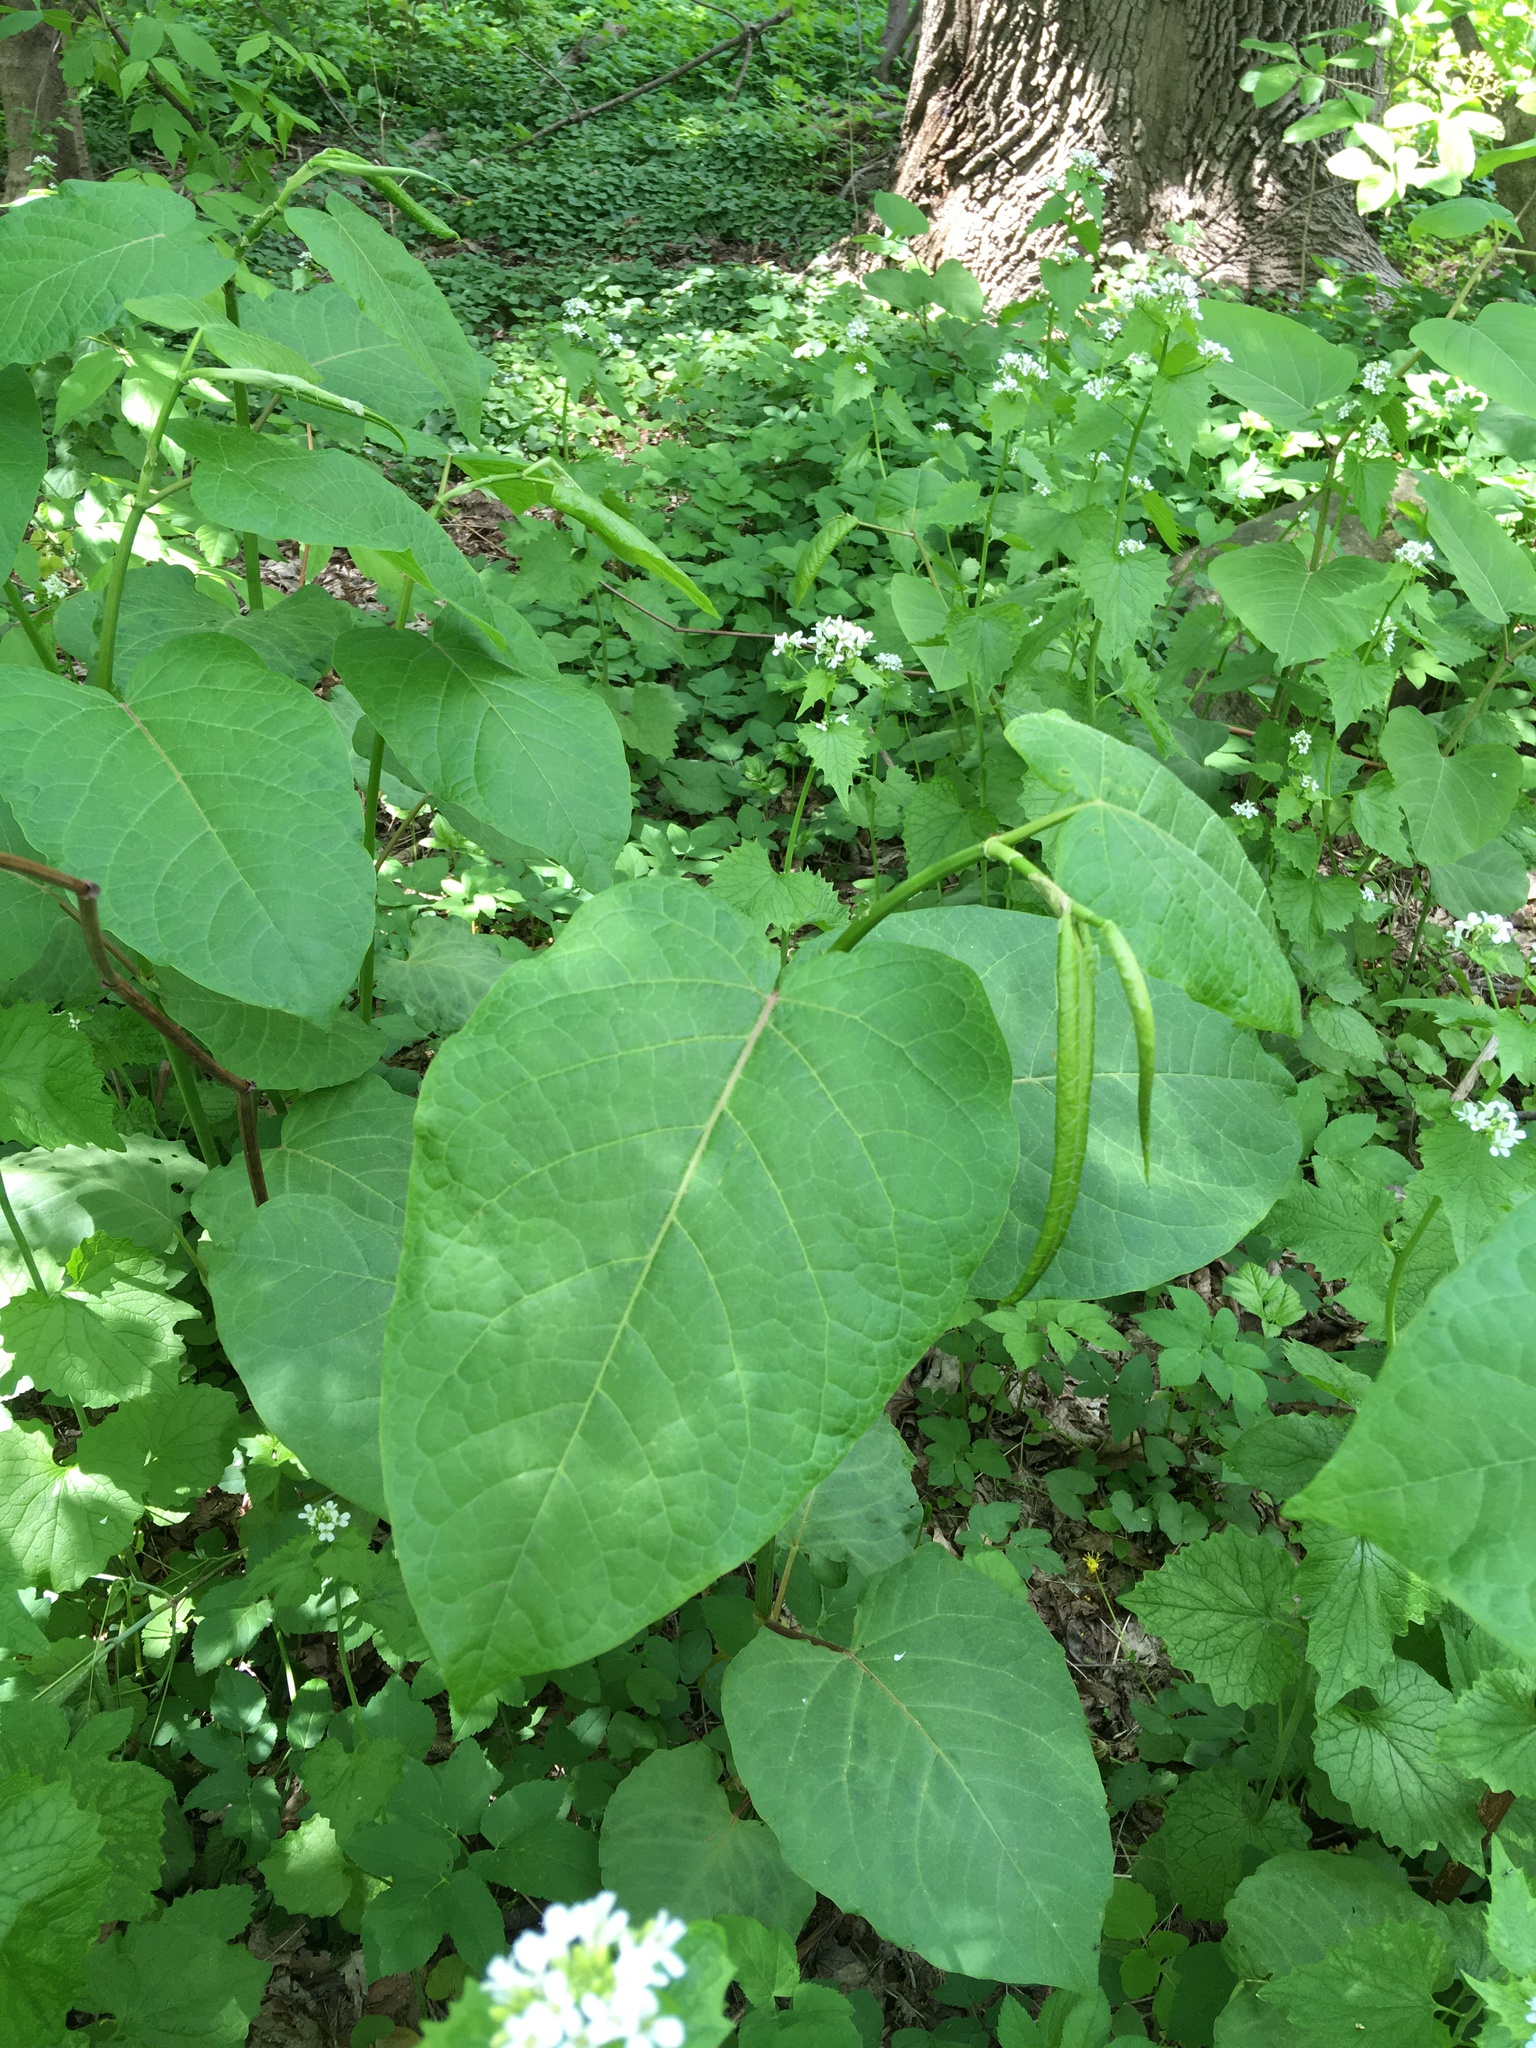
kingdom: Plantae
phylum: Tracheophyta
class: Magnoliopsida
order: Caryophyllales
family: Polygonaceae
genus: Reynoutria
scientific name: Reynoutria sachalinensis
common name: Giant knotweed
